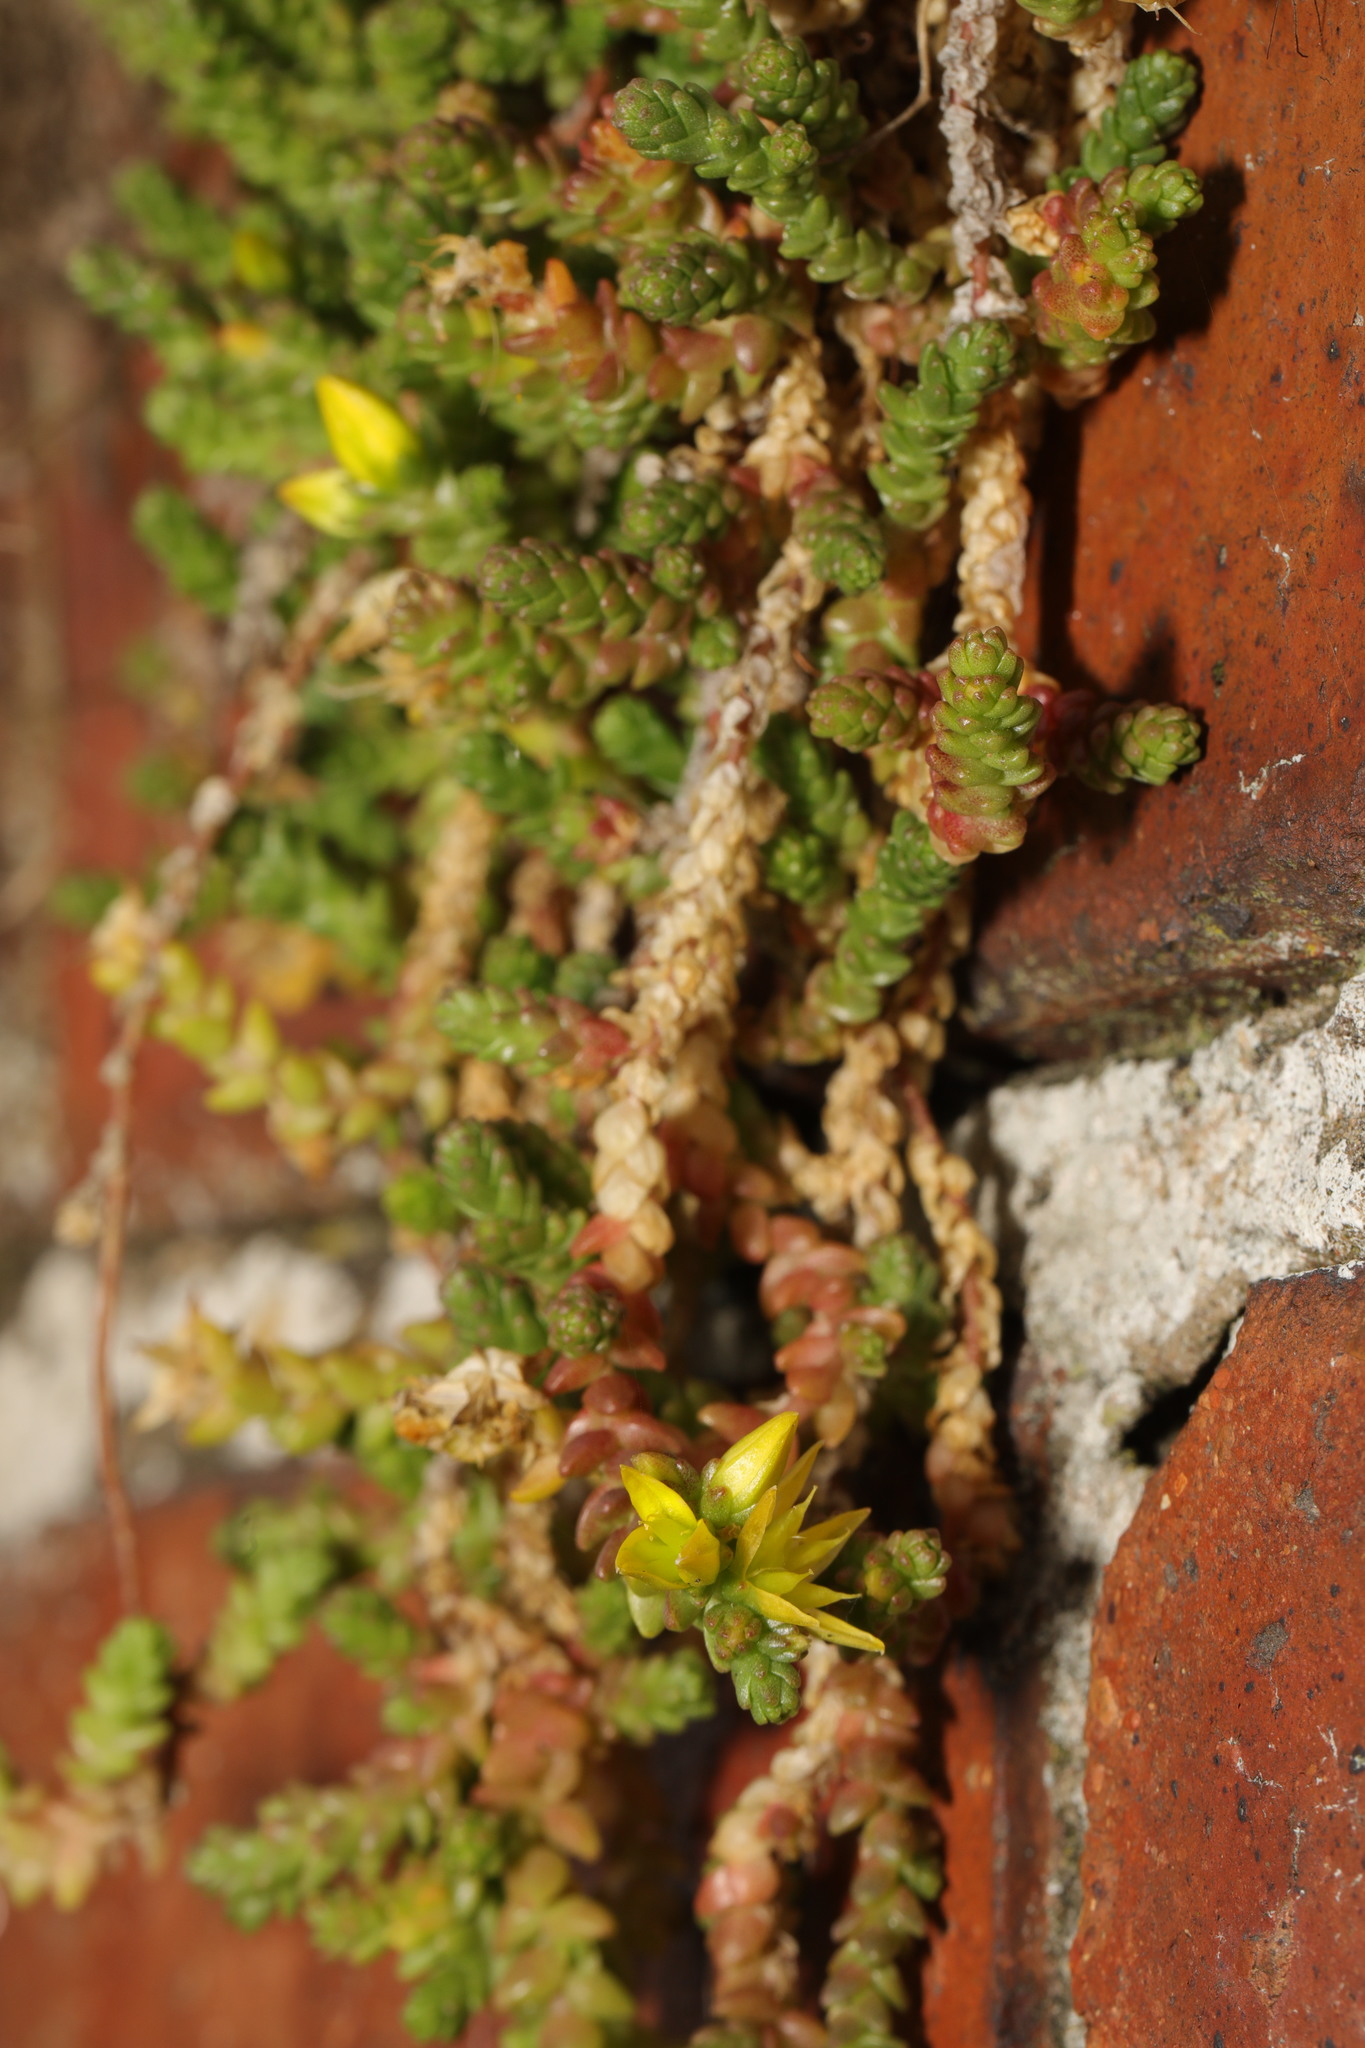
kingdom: Plantae
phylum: Tracheophyta
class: Magnoliopsida
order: Saxifragales
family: Crassulaceae
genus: Sedum
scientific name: Sedum acre
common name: Biting stonecrop
